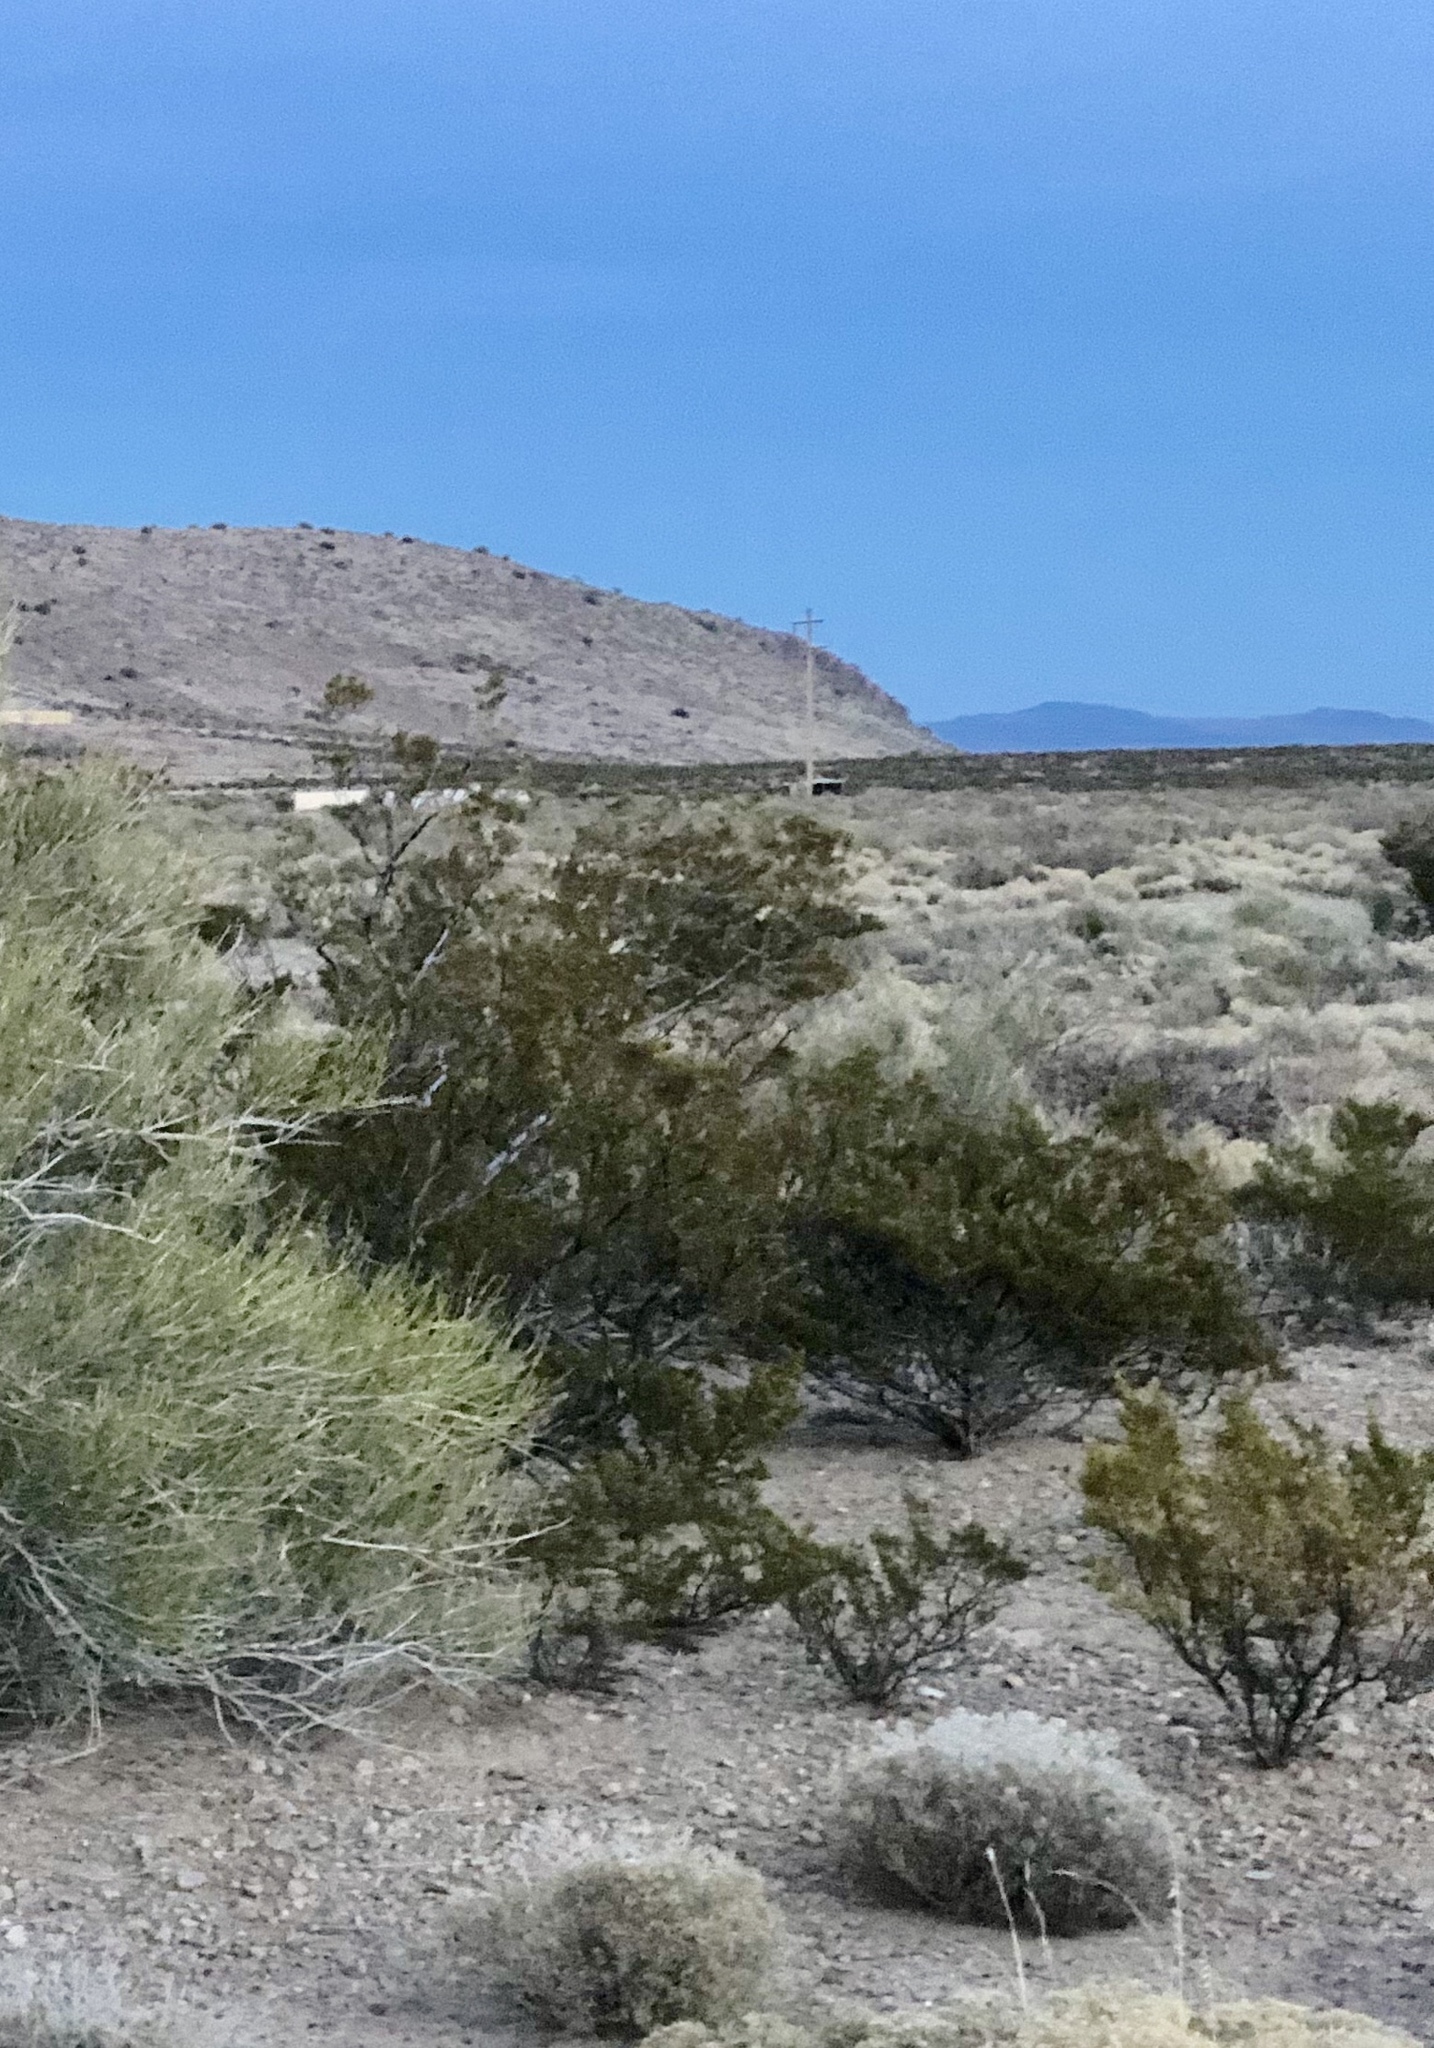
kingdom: Plantae
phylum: Tracheophyta
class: Magnoliopsida
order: Zygophyllales
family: Zygophyllaceae
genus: Larrea
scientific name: Larrea tridentata
